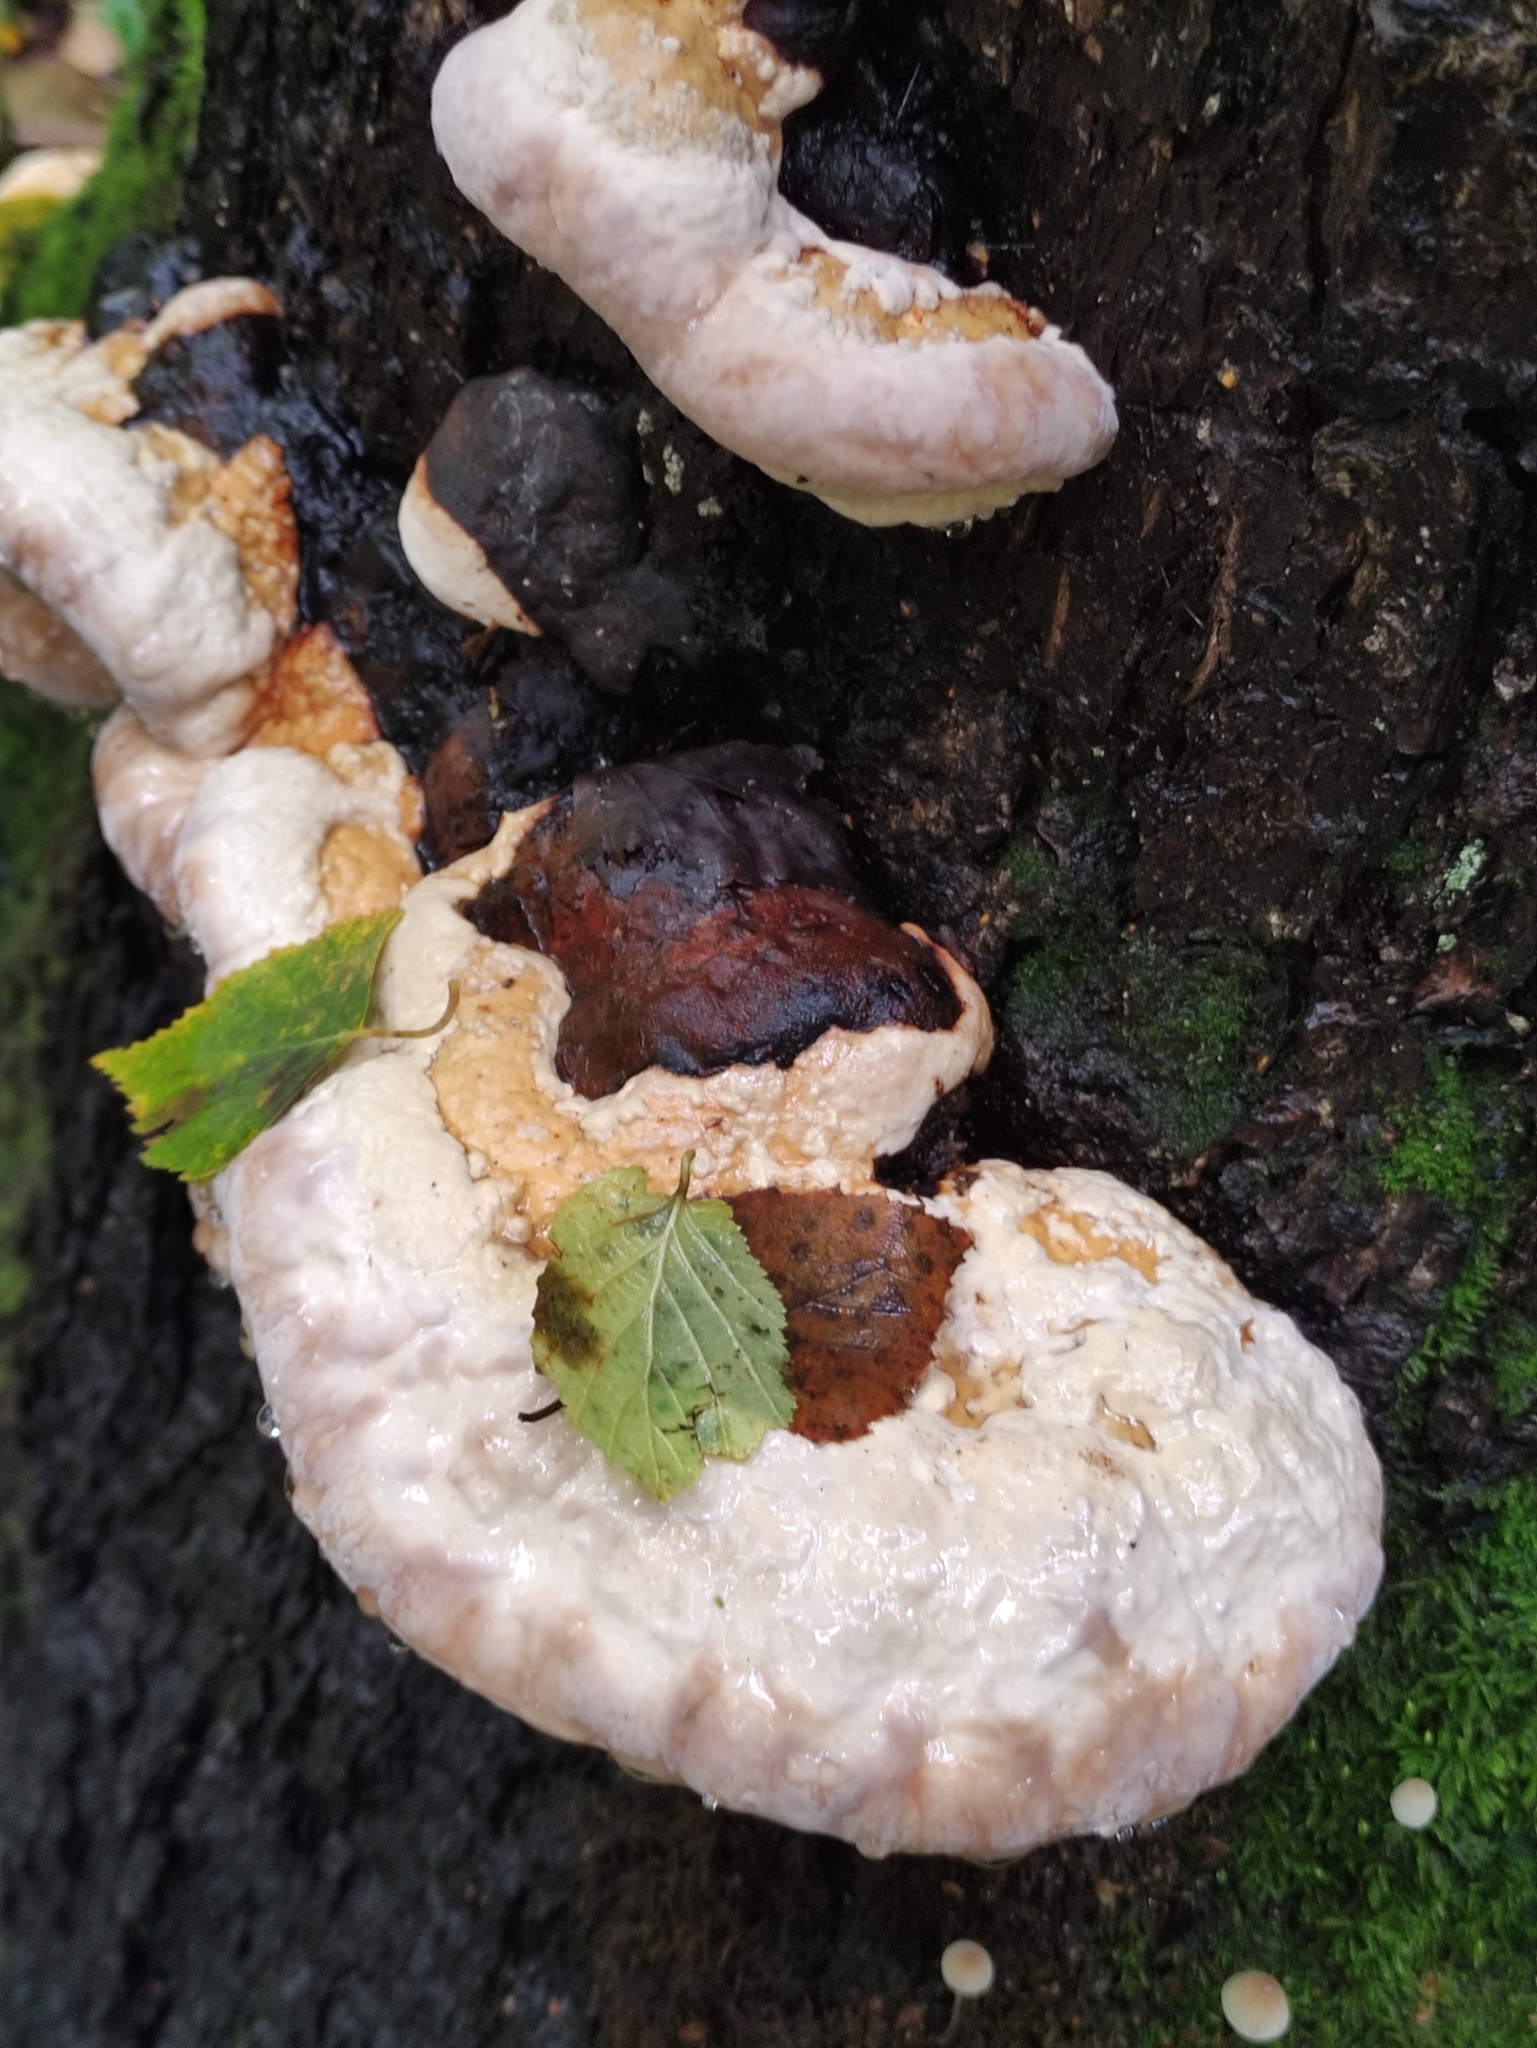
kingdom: Fungi
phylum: Basidiomycota
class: Agaricomycetes
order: Polyporales
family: Fomitopsidaceae
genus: Fomitopsis
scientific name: Fomitopsis pinicola
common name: Red-belted bracket
